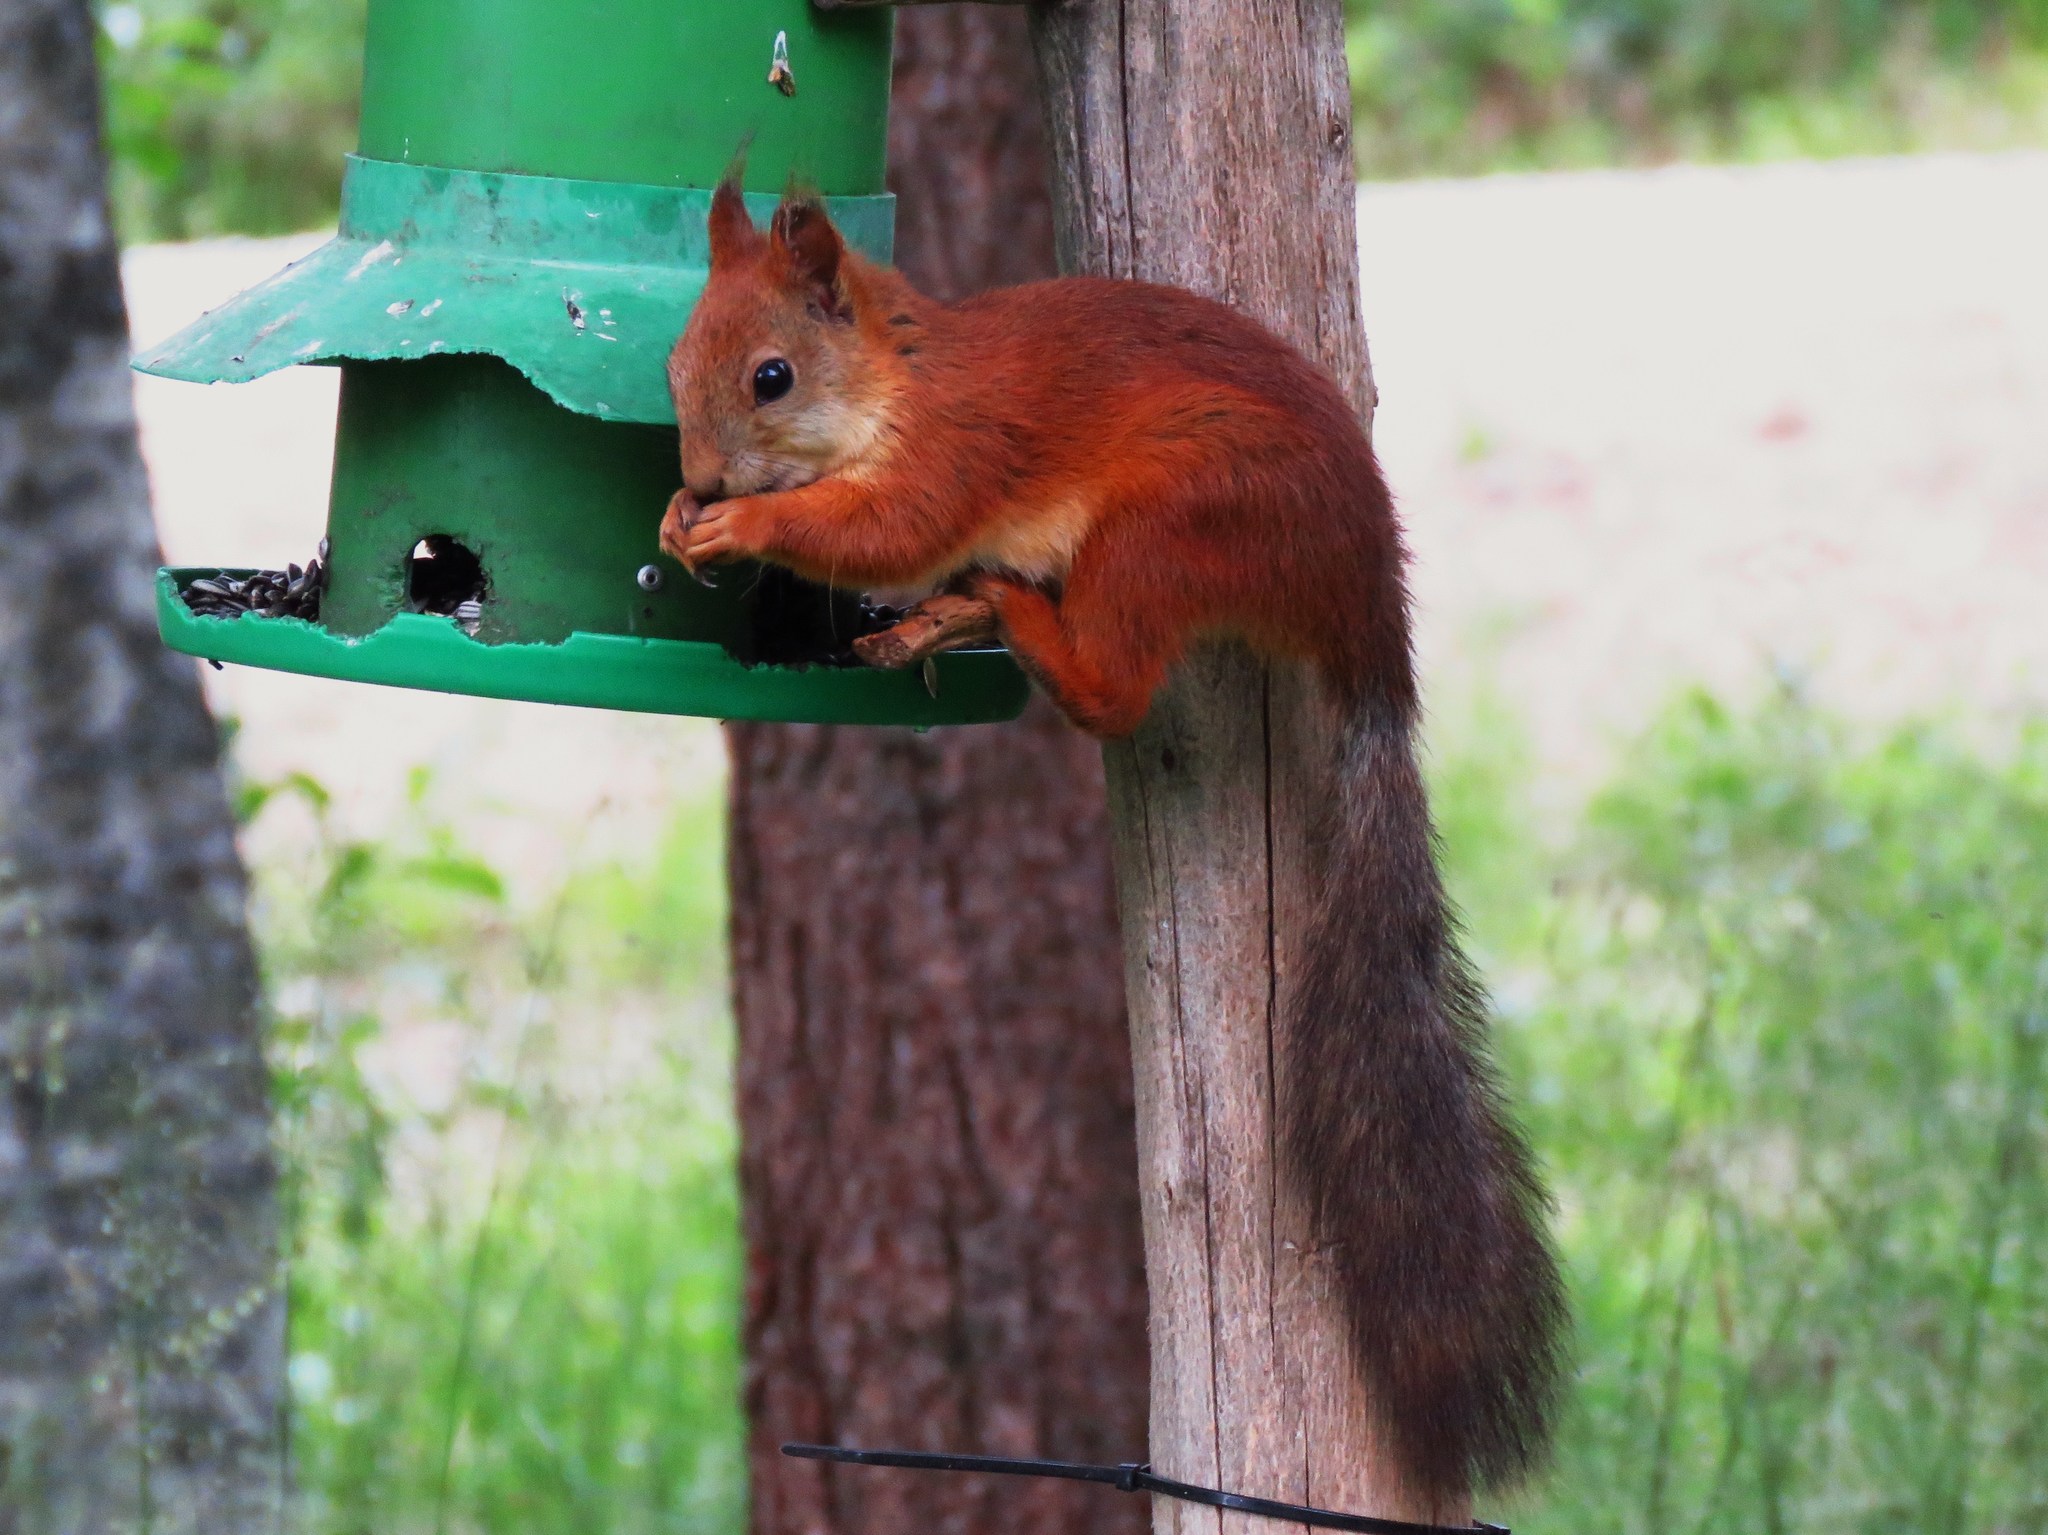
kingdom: Animalia
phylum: Chordata
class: Mammalia
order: Rodentia
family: Sciuridae
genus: Sciurus
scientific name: Sciurus vulgaris
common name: Eurasian red squirrel
